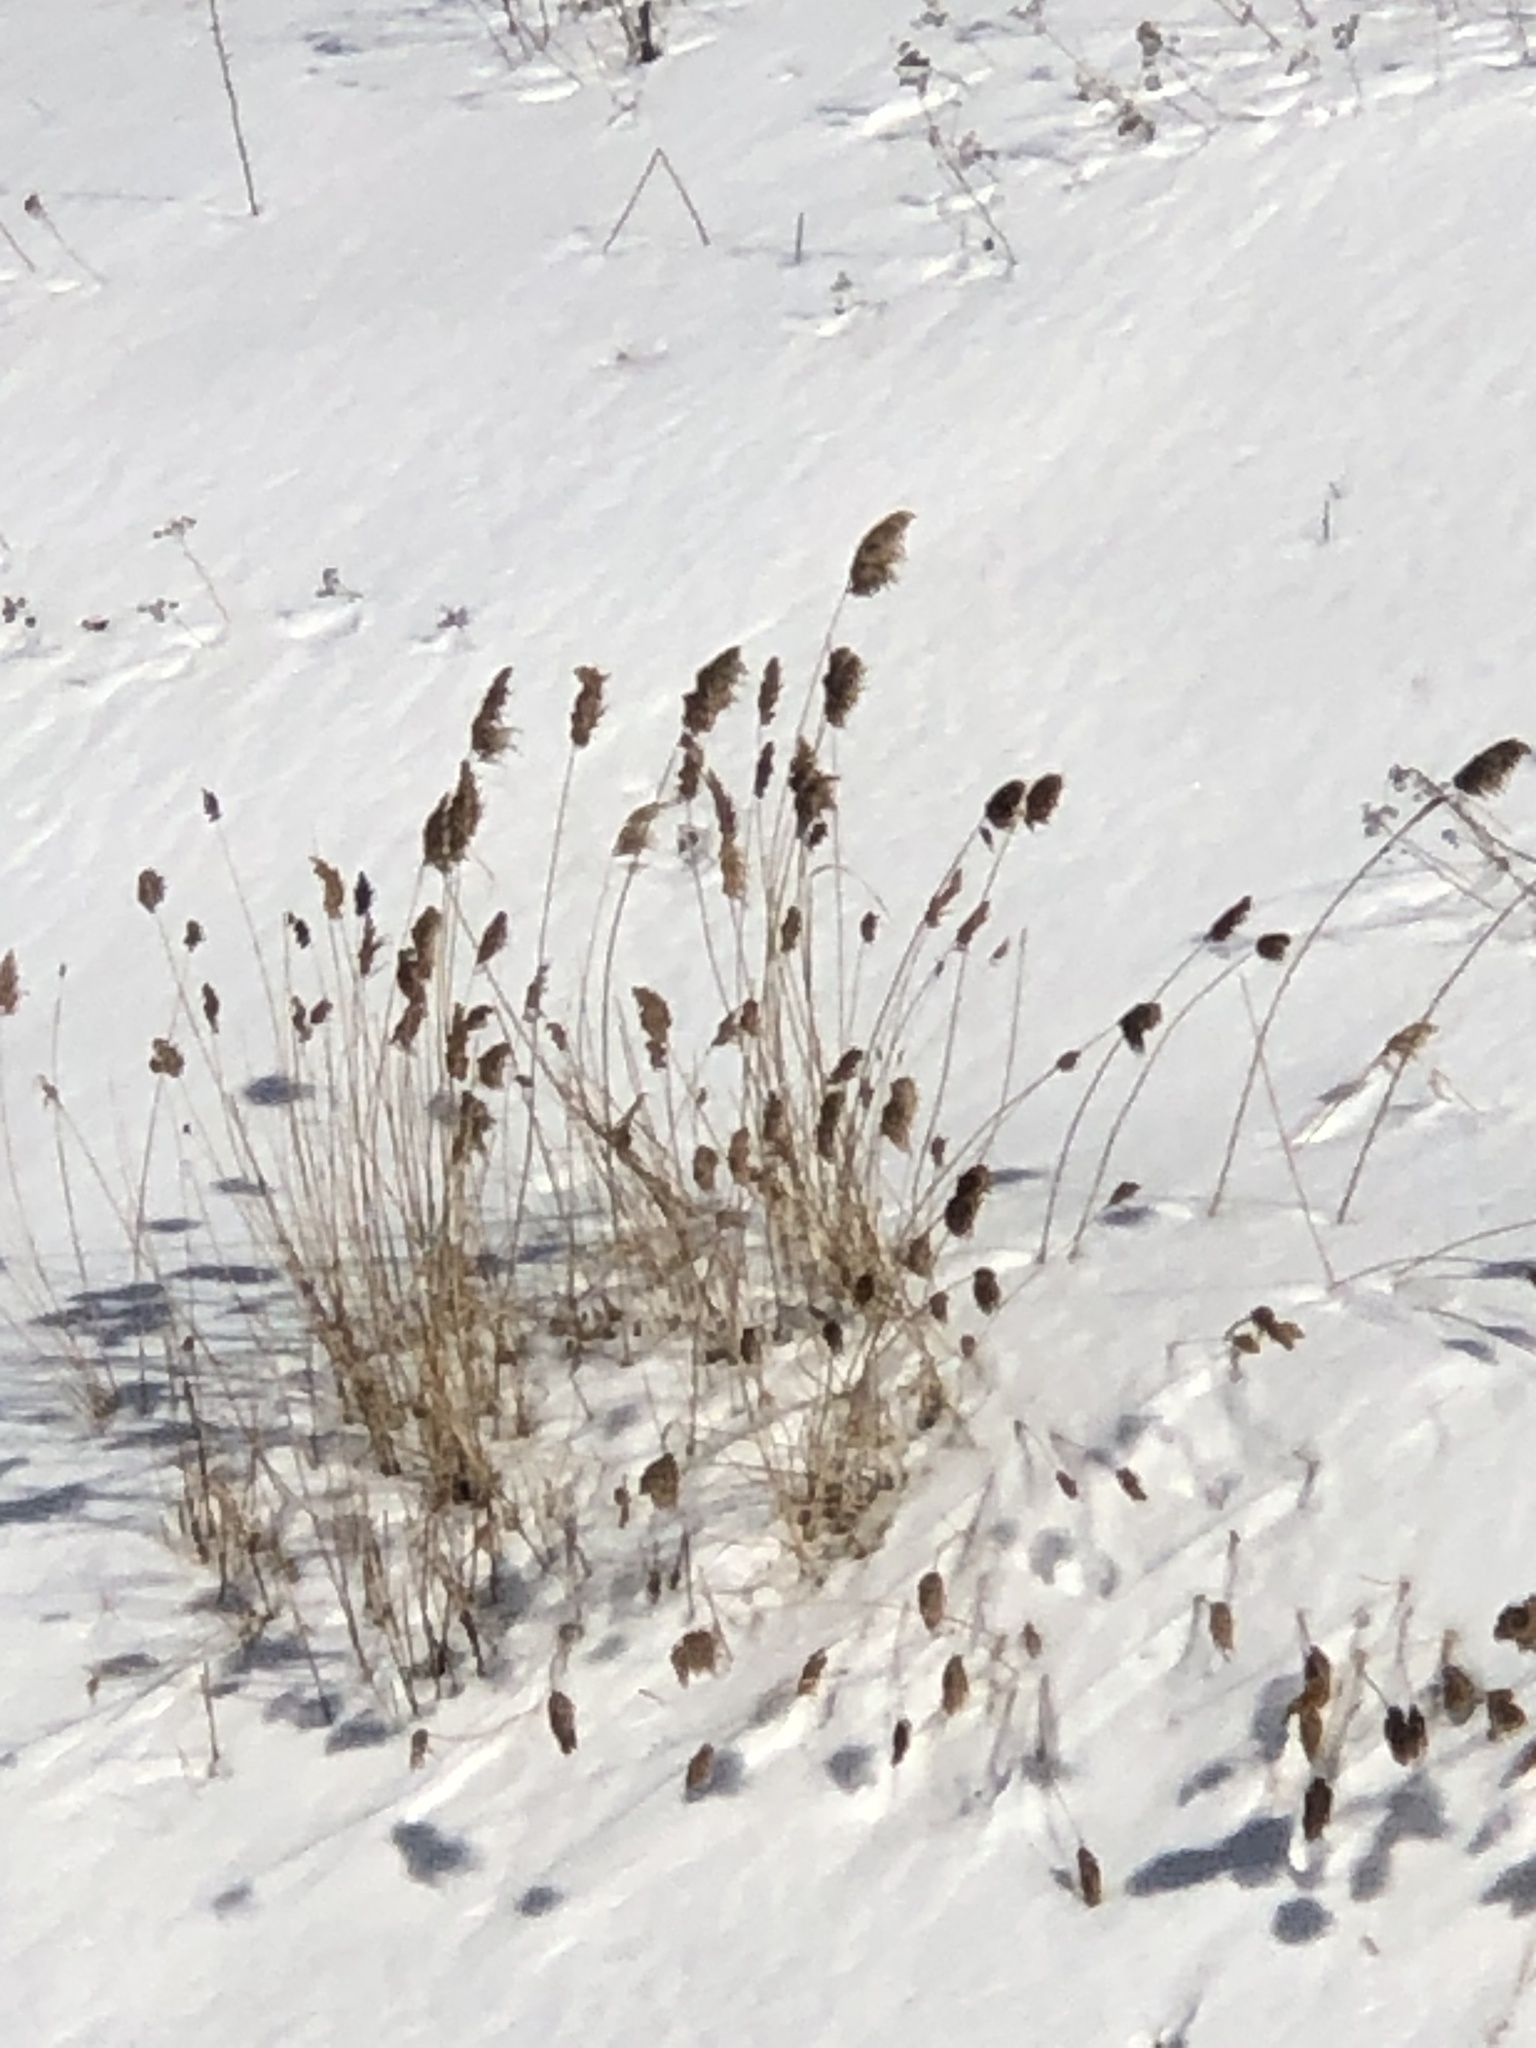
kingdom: Plantae
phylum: Tracheophyta
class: Liliopsida
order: Poales
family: Poaceae
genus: Phragmites
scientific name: Phragmites australis
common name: Common reed
